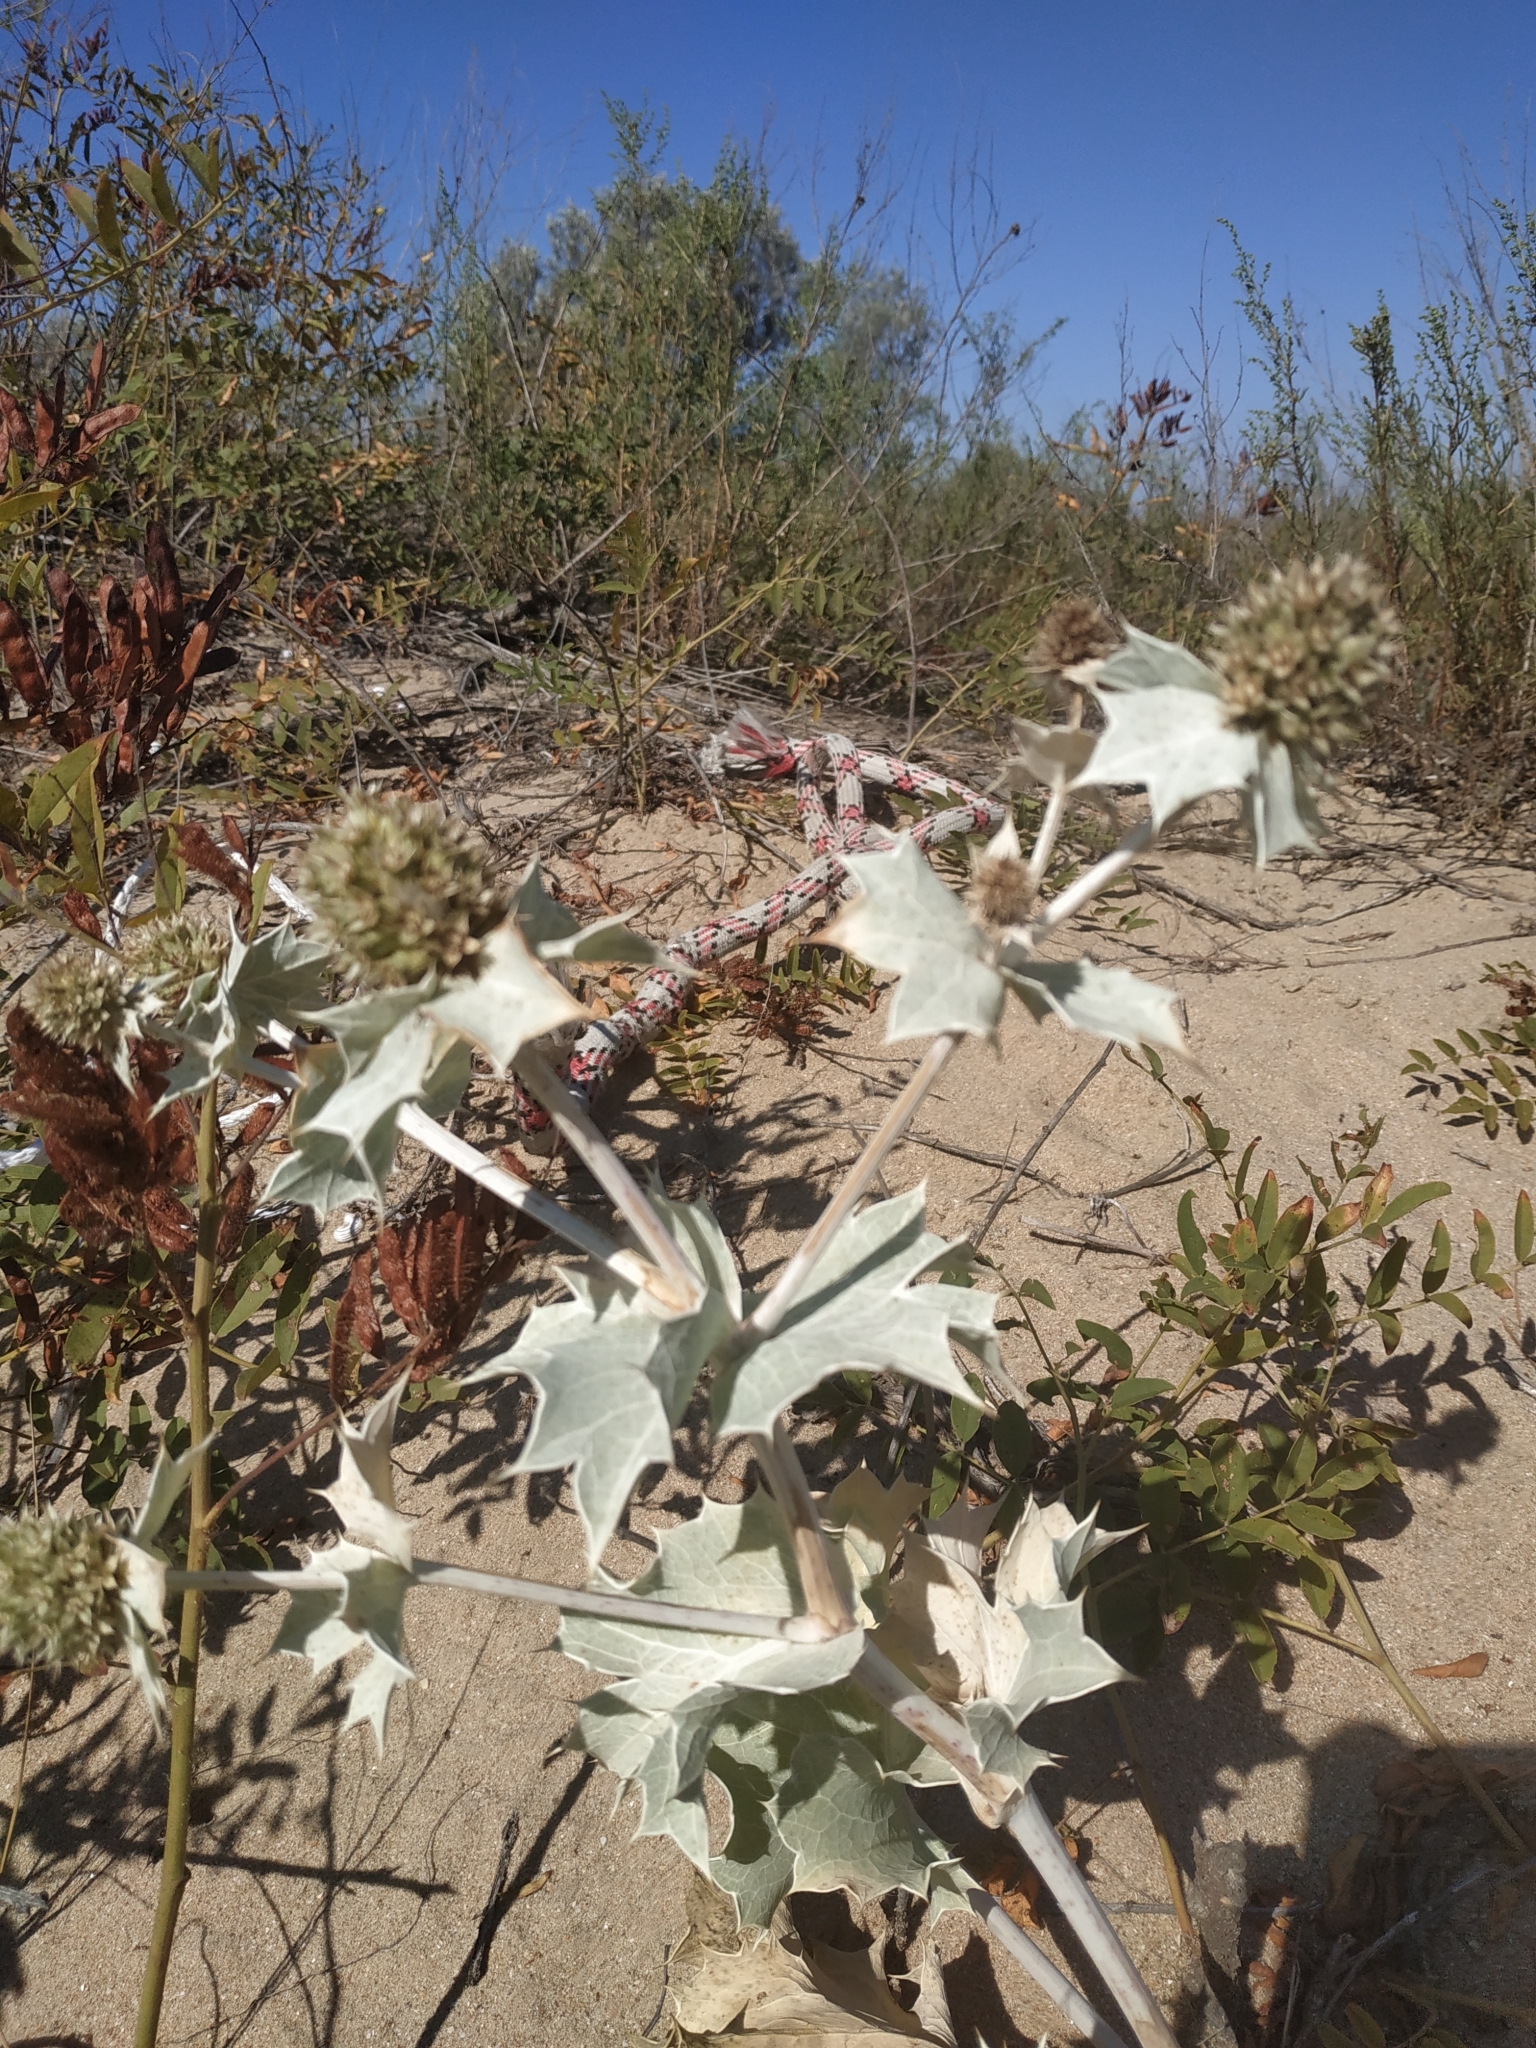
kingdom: Plantae
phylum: Tracheophyta
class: Magnoliopsida
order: Apiales
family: Apiaceae
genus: Eryngium
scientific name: Eryngium maritimum
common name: Sea-holly
